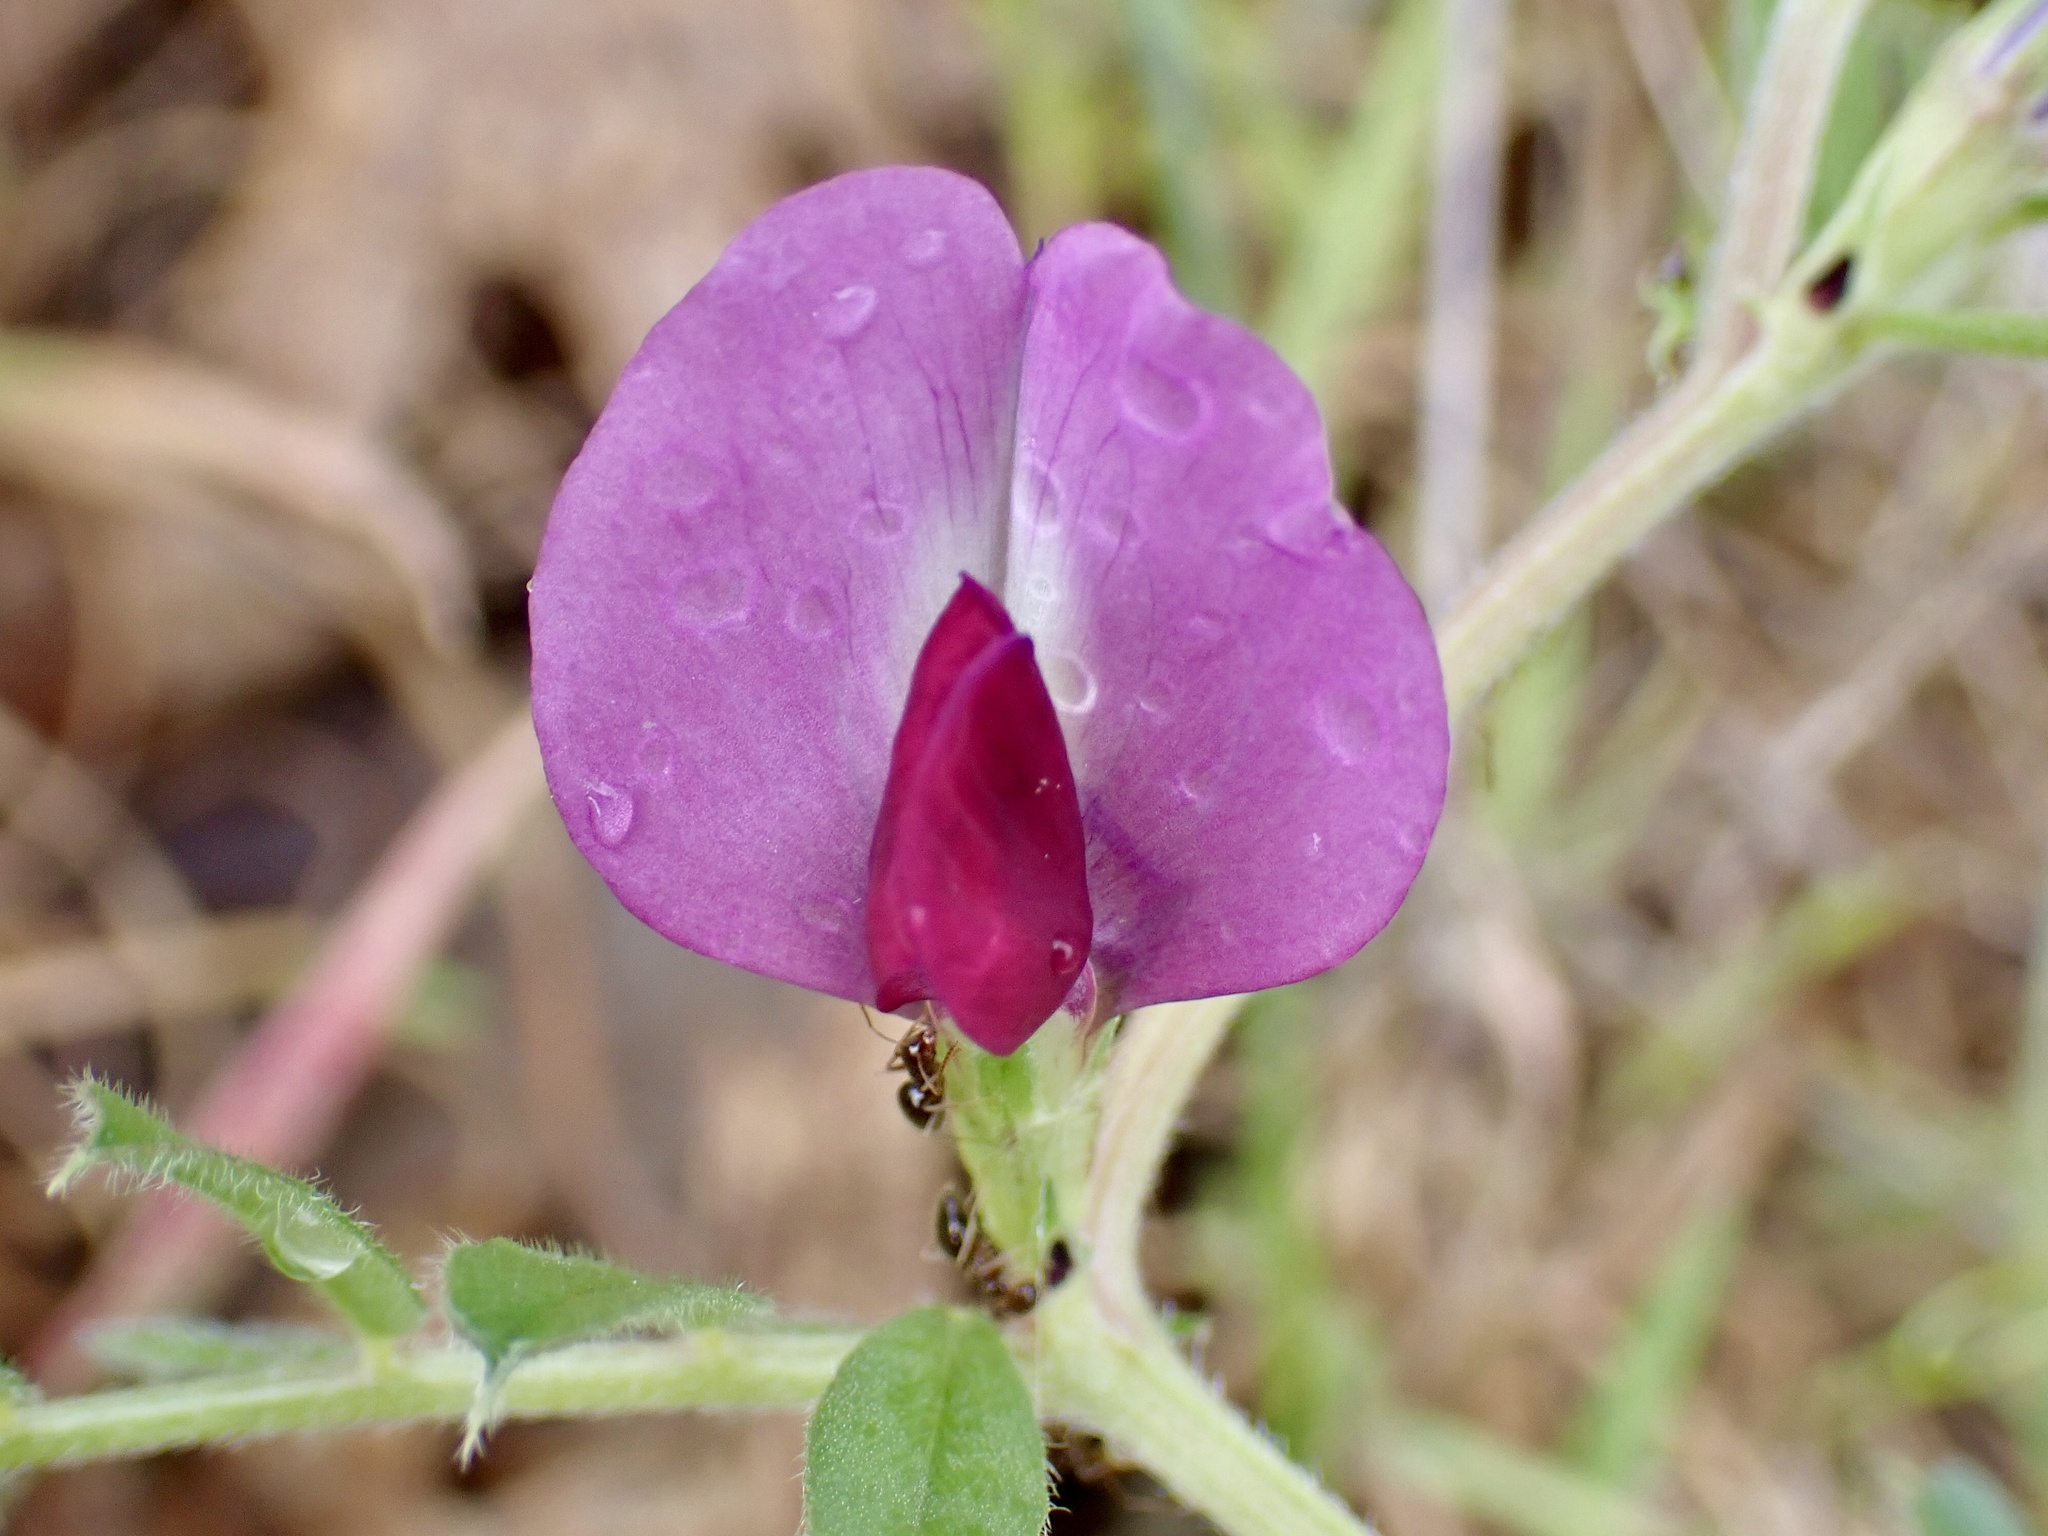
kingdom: Plantae
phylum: Tracheophyta
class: Magnoliopsida
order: Fabales
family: Fabaceae
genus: Vicia
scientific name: Vicia sativa
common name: Garden vetch
